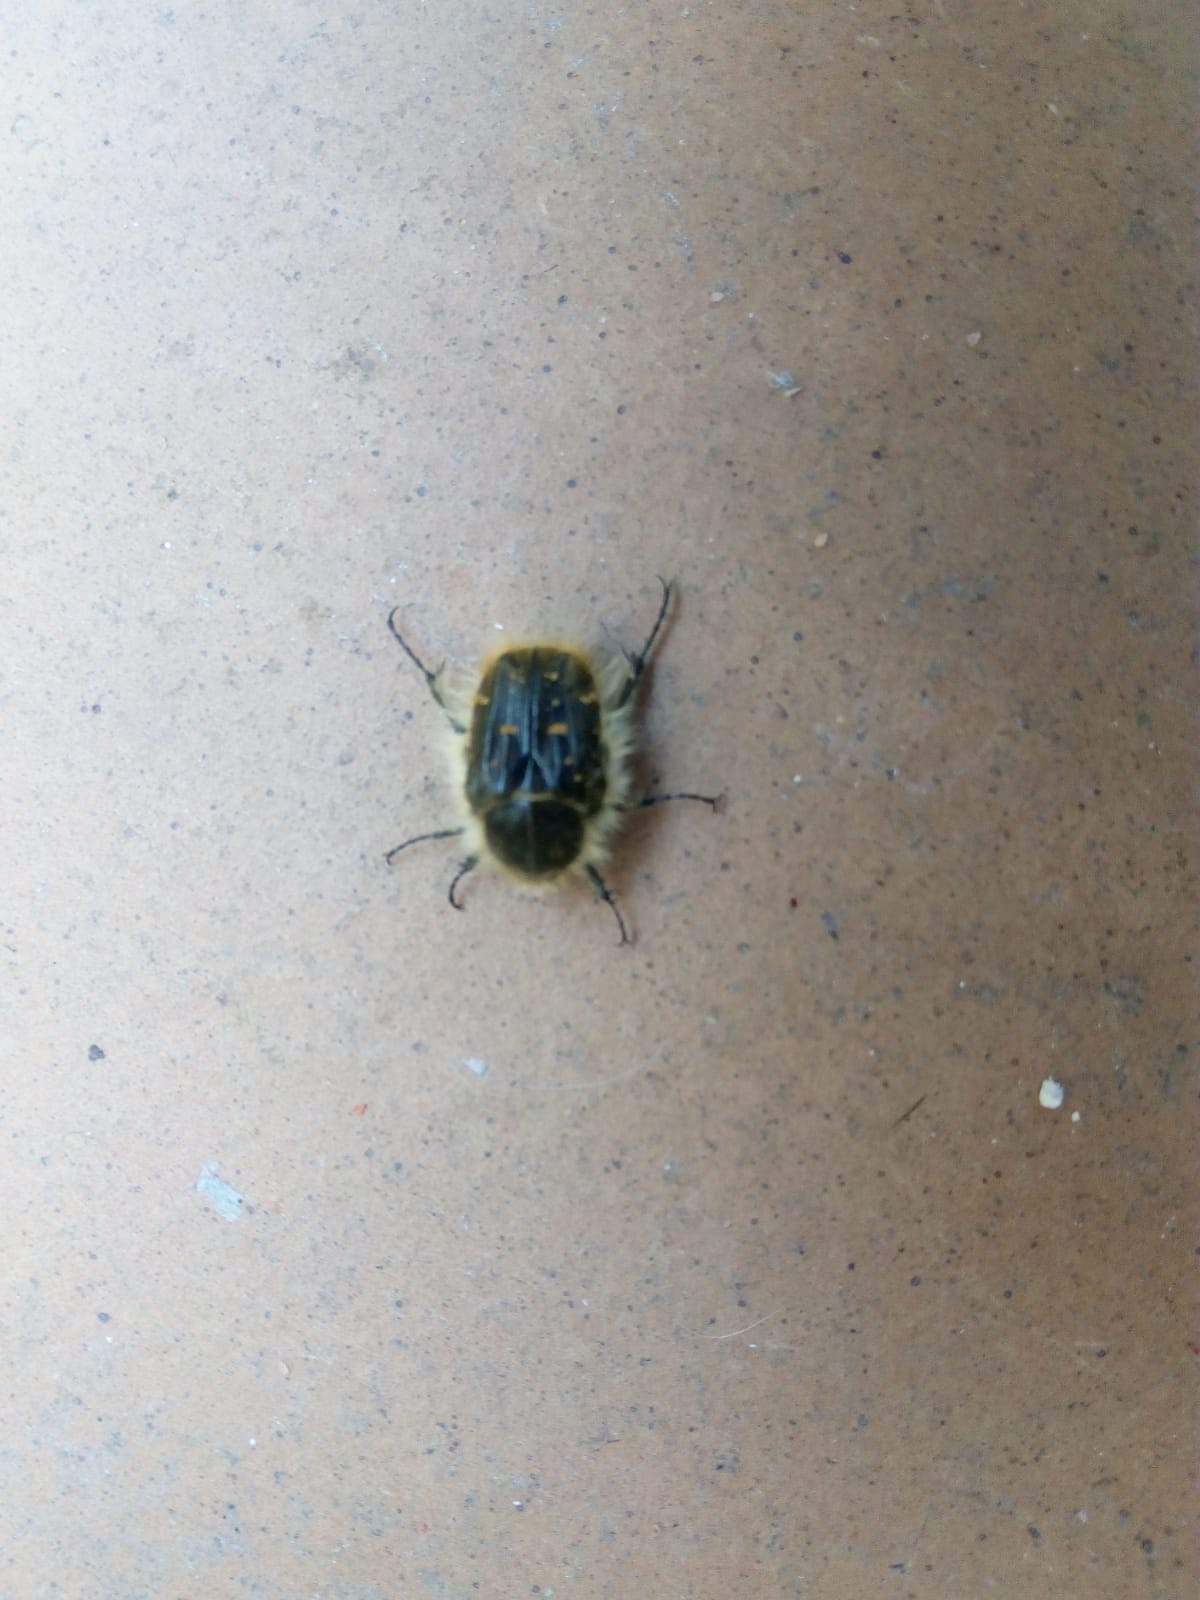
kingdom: Animalia
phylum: Arthropoda
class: Insecta
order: Coleoptera
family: Scarabaeidae
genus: Tropinota
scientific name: Tropinota squalida
